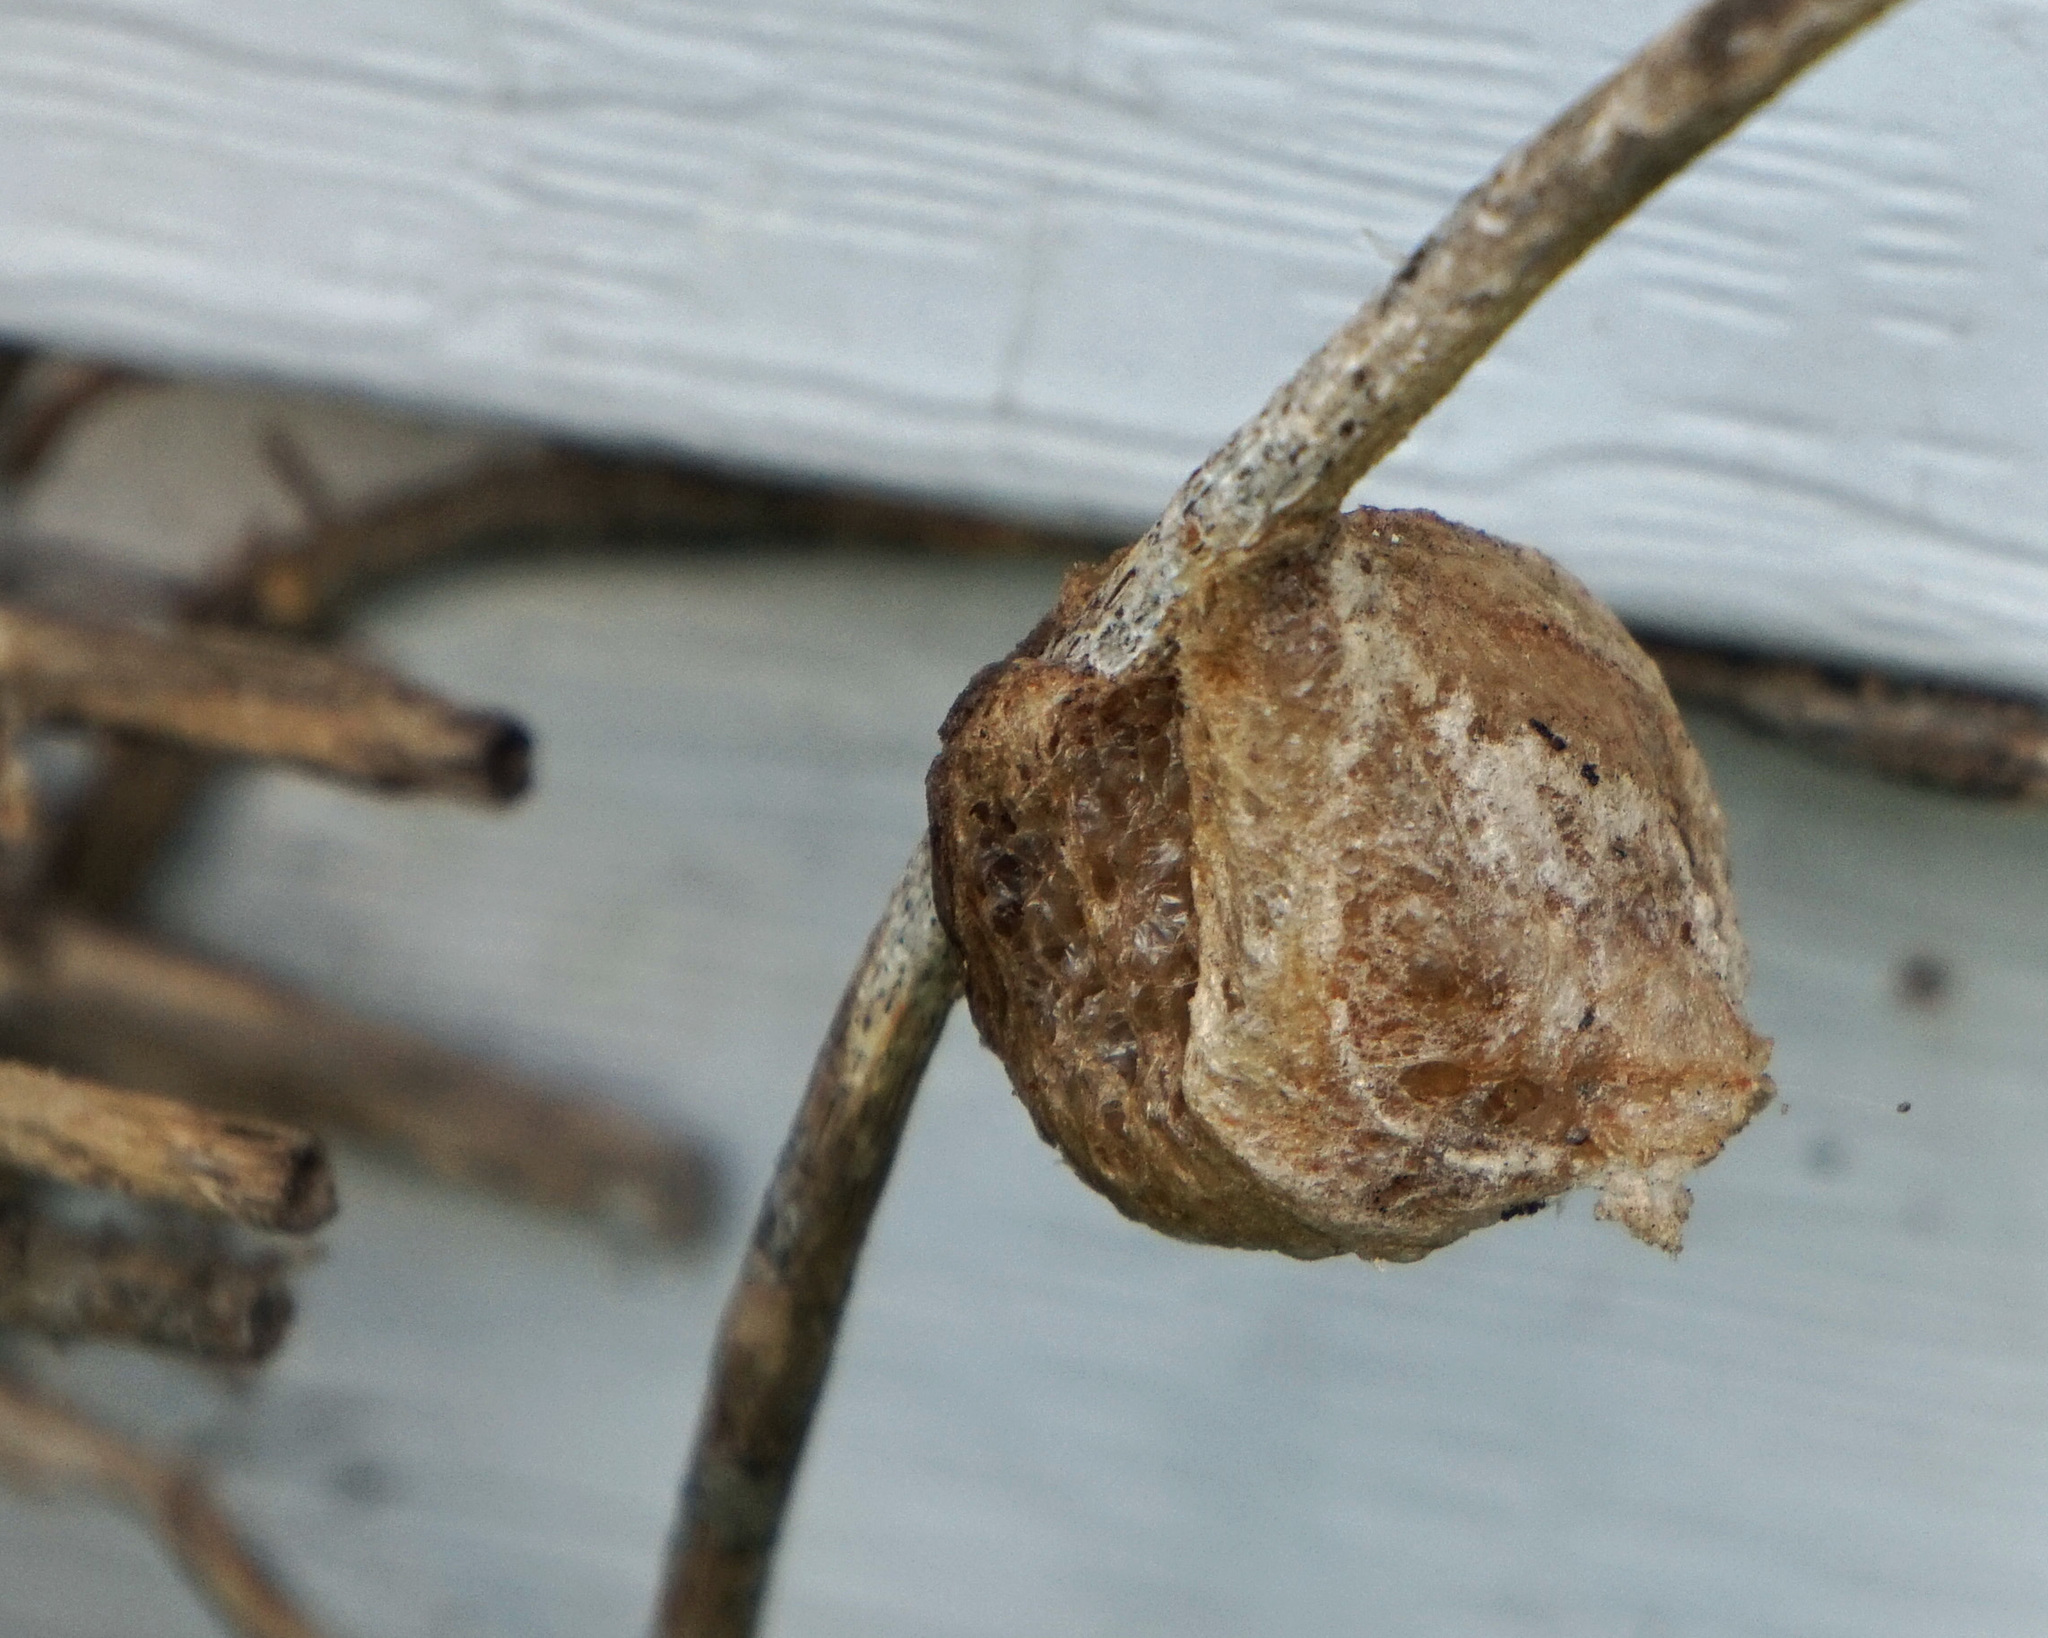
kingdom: Animalia
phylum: Arthropoda
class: Insecta
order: Mantodea
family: Mantidae
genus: Tenodera
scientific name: Tenodera sinensis
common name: Chinese mantis
